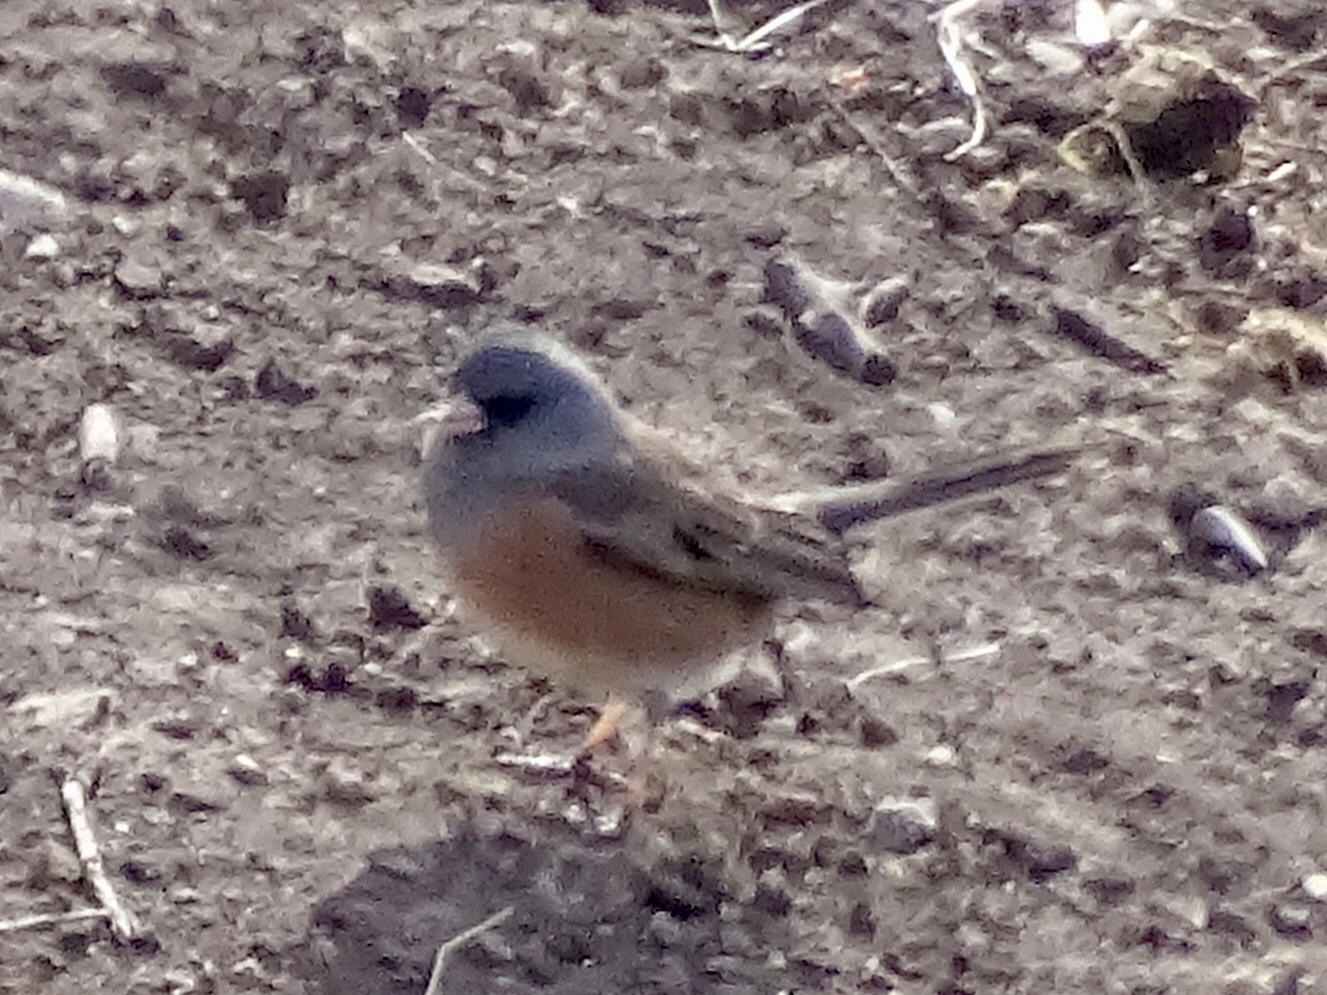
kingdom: Animalia
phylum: Chordata
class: Aves
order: Passeriformes
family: Passerellidae
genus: Junco
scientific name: Junco hyemalis
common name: Dark-eyed junco
